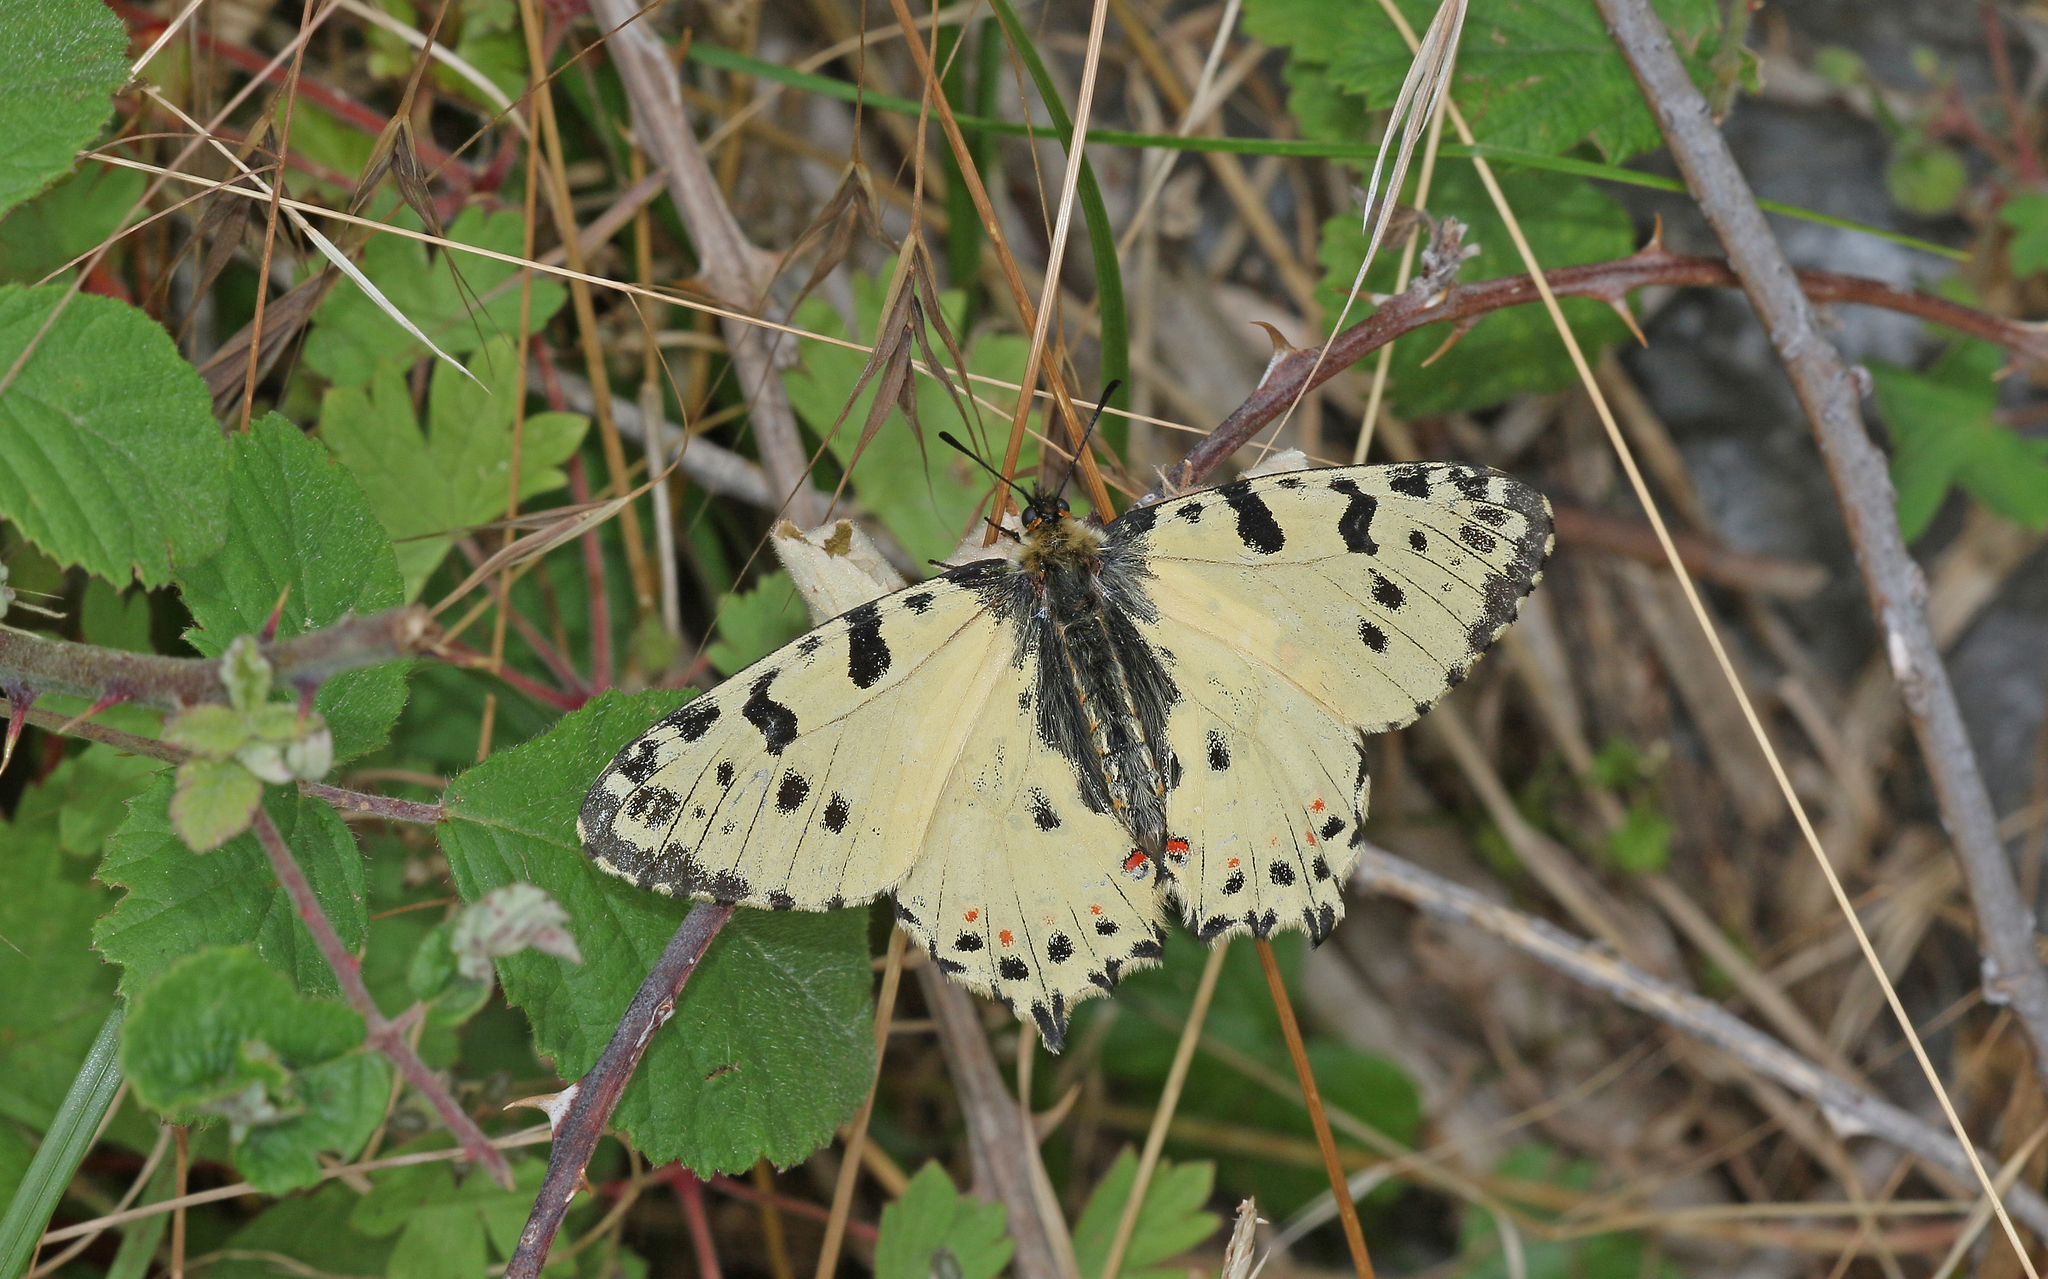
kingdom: Animalia
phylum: Arthropoda
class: Insecta
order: Lepidoptera
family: Papilionidae
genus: Zerynthia
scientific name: Zerynthia cerisy
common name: Eastern festoon
